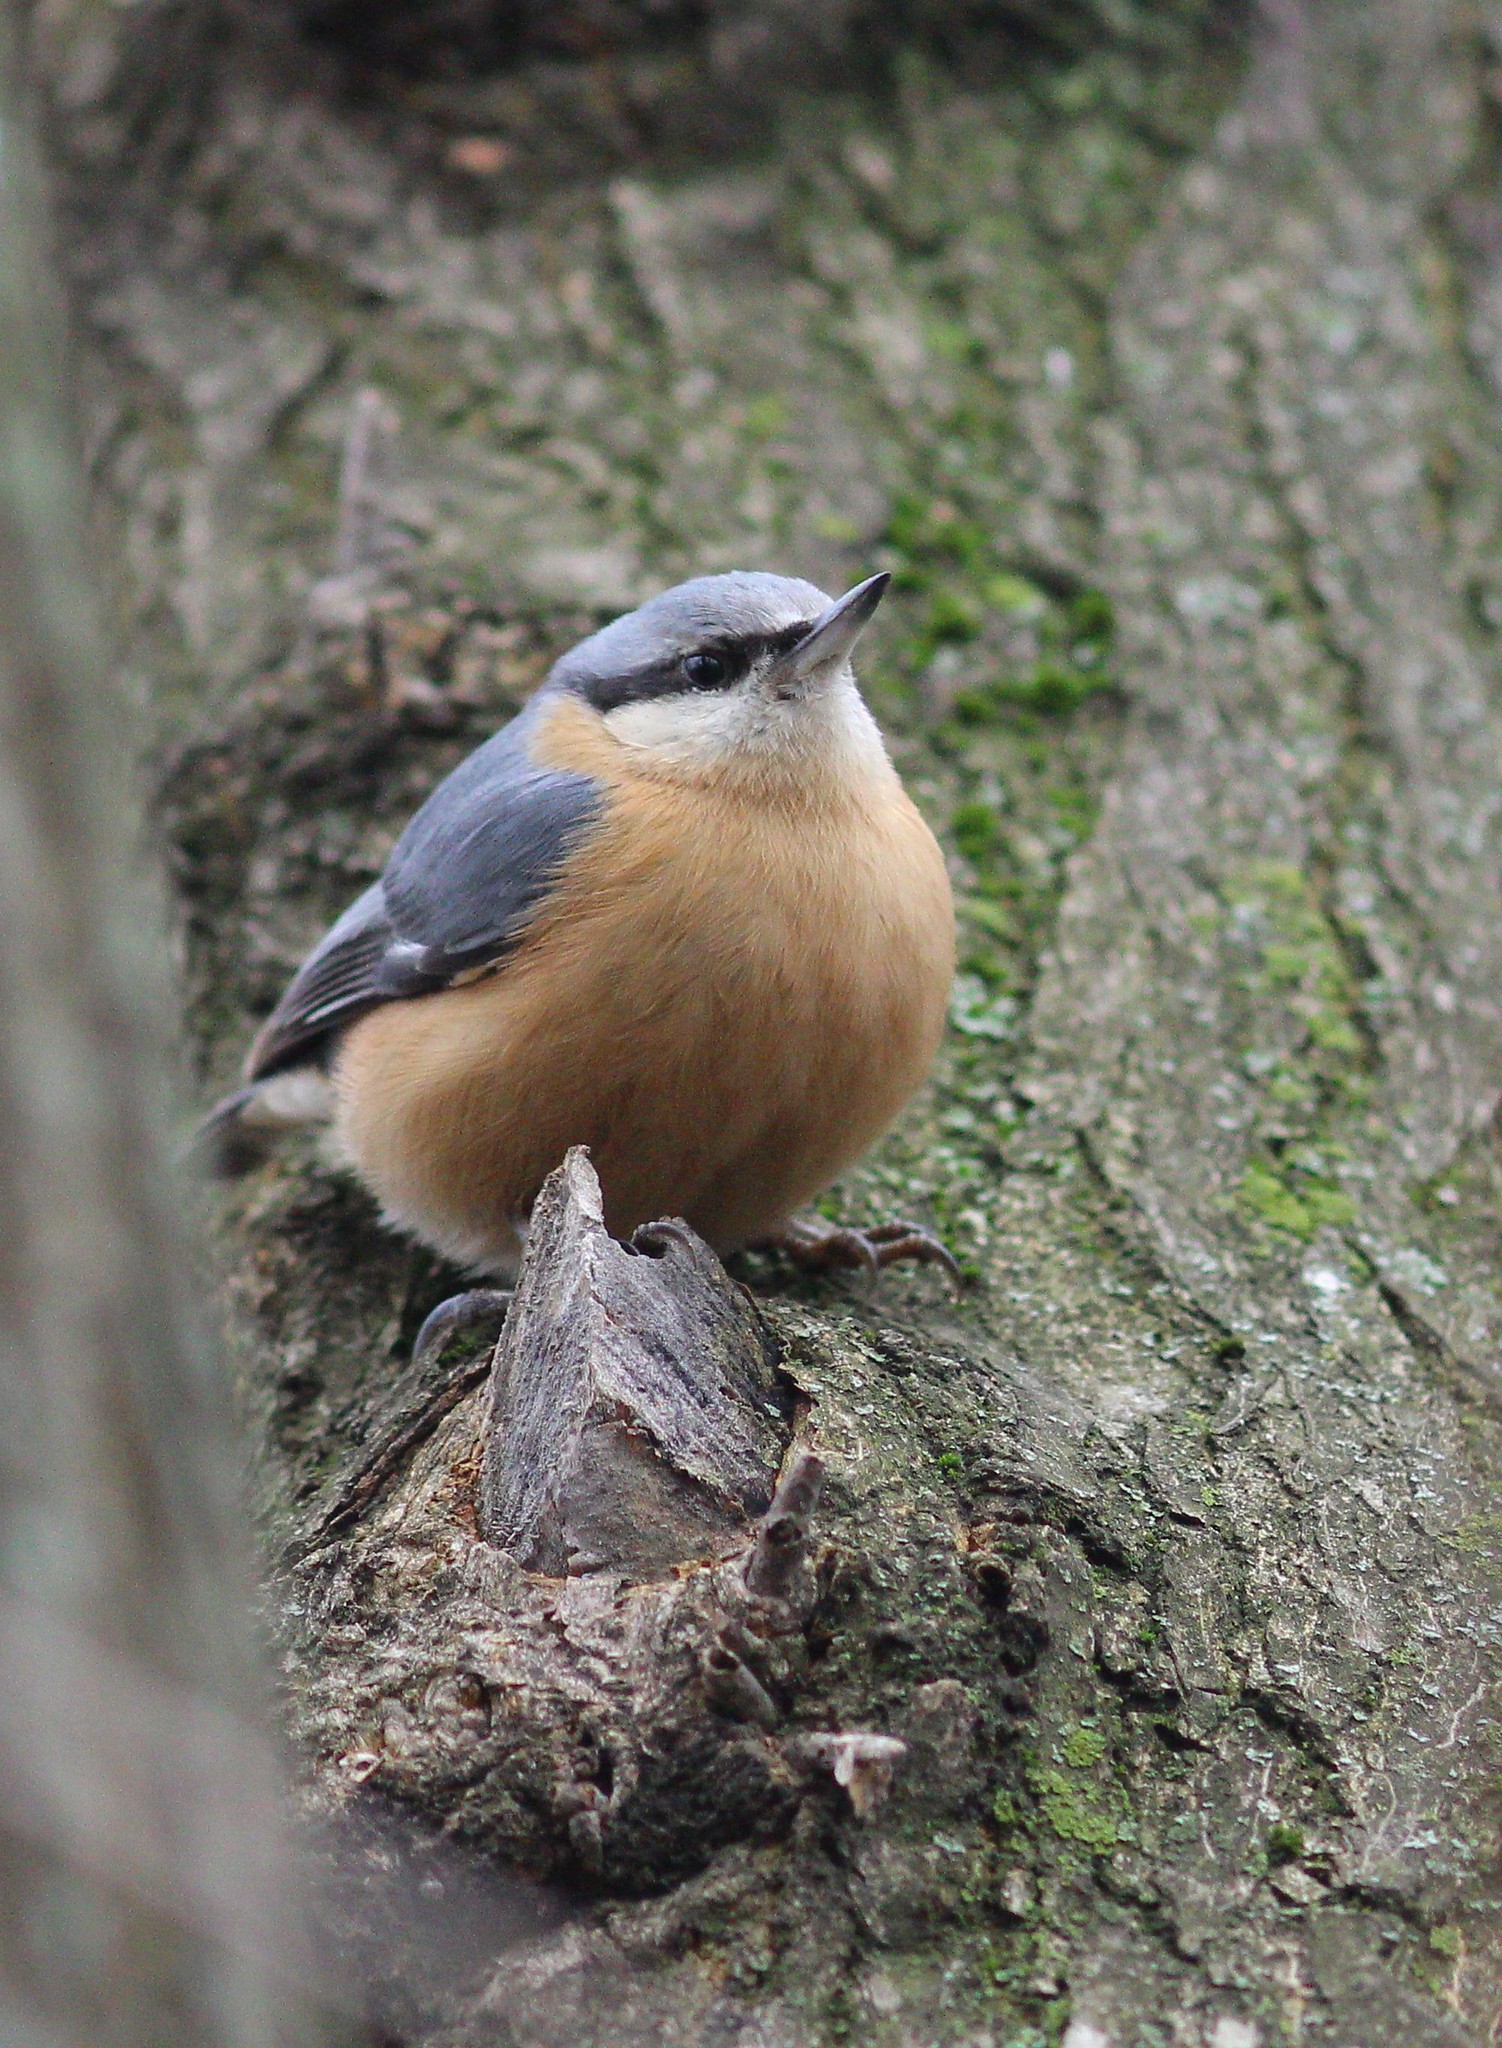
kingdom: Animalia
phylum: Chordata
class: Aves
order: Passeriformes
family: Sittidae
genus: Sitta
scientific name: Sitta europaea
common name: Eurasian nuthatch
